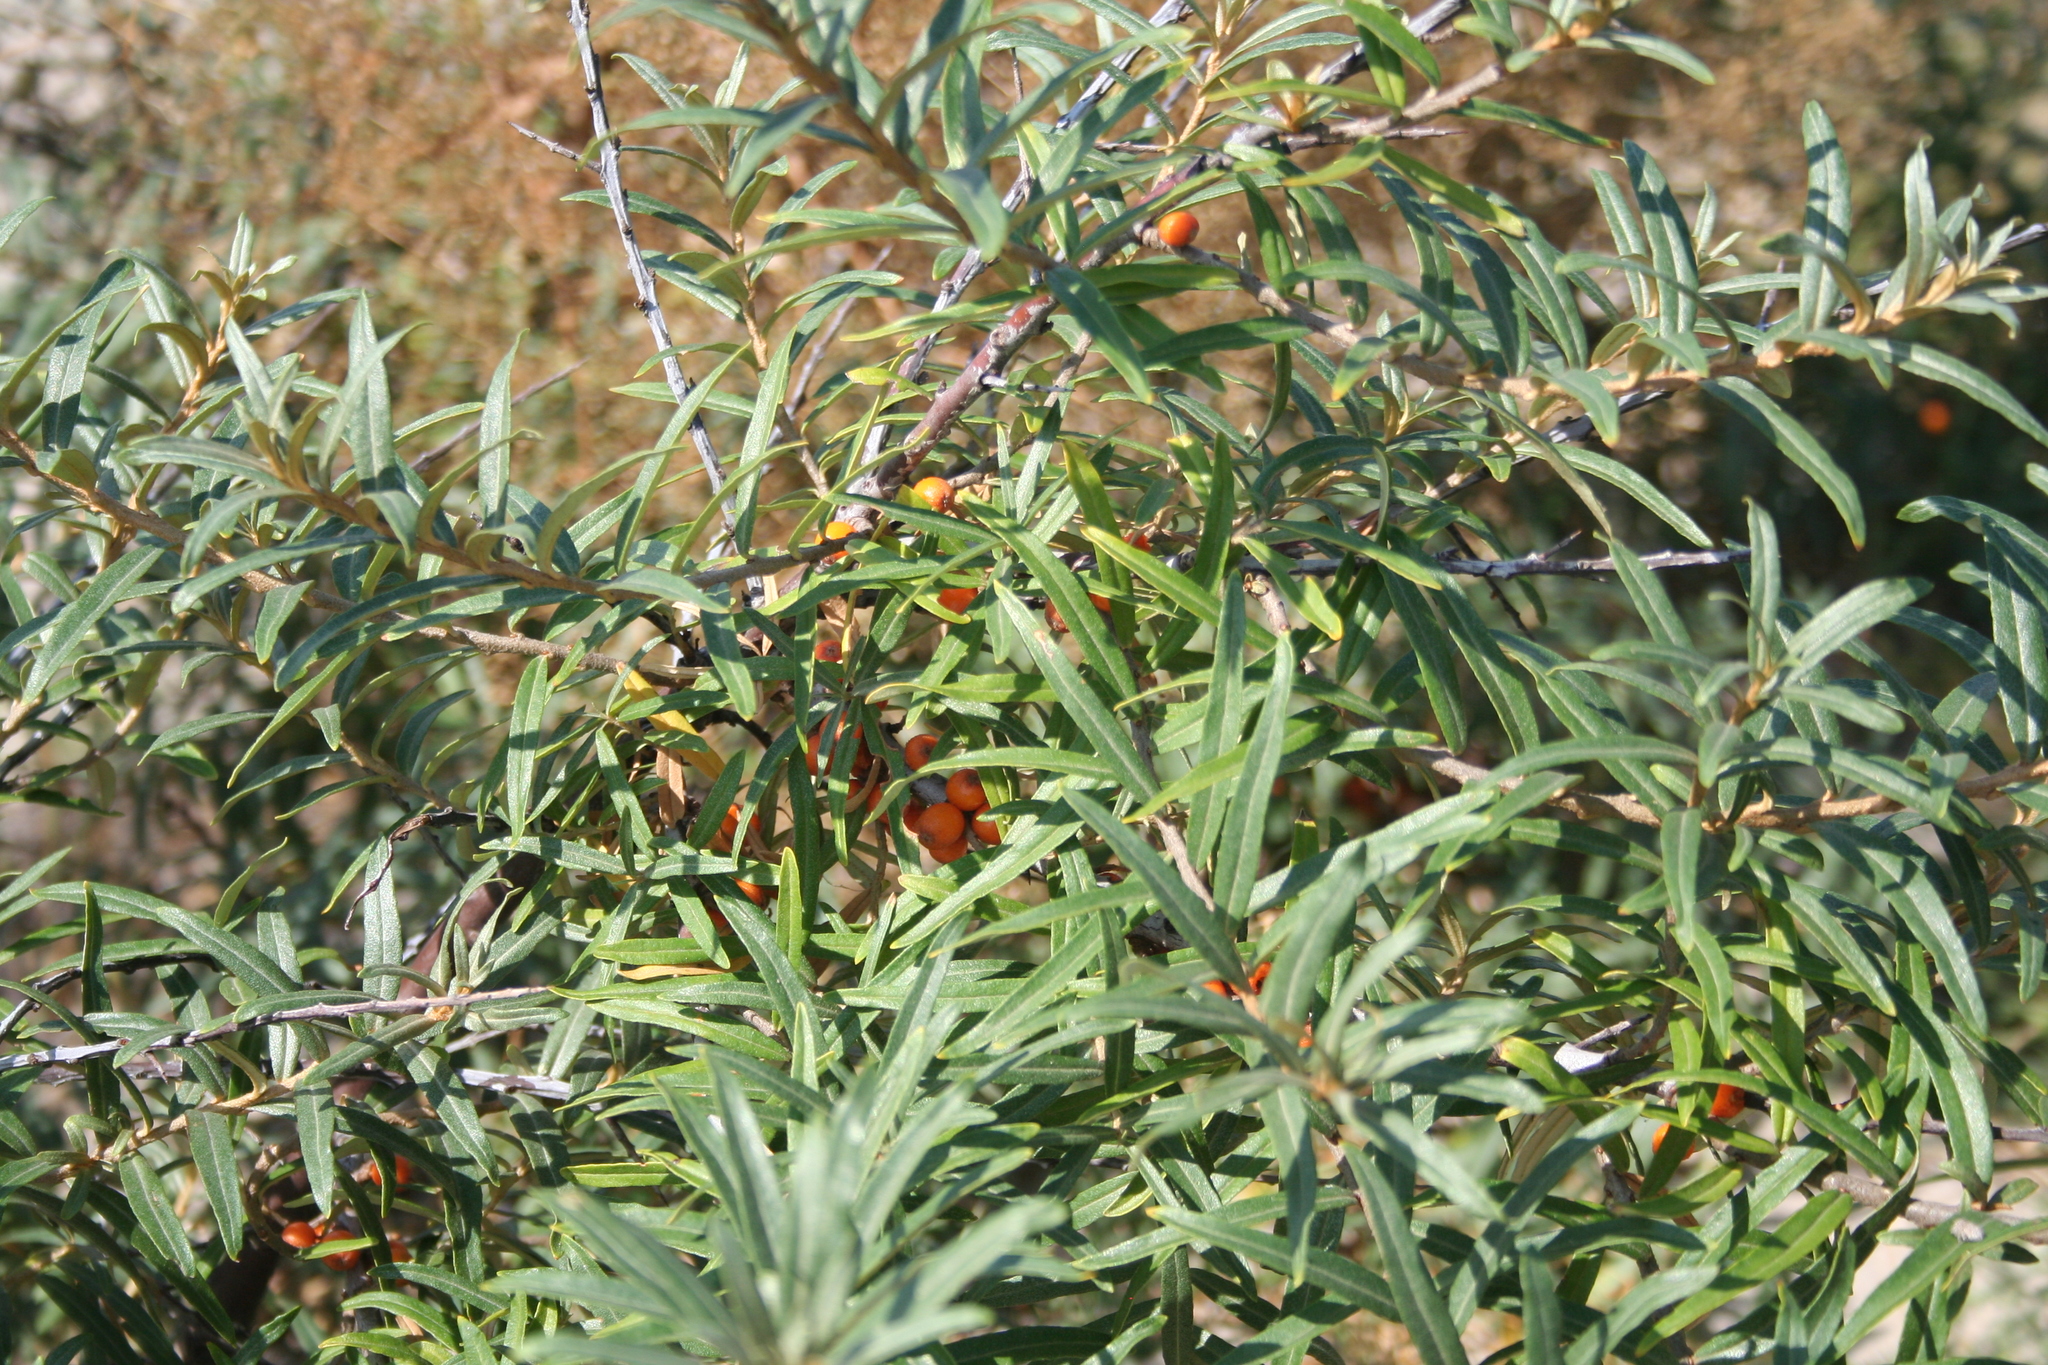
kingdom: Plantae
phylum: Tracheophyta
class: Magnoliopsida
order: Rosales
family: Elaeagnaceae
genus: Hippophae
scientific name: Hippophae rhamnoides
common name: Sea-buckthorn
